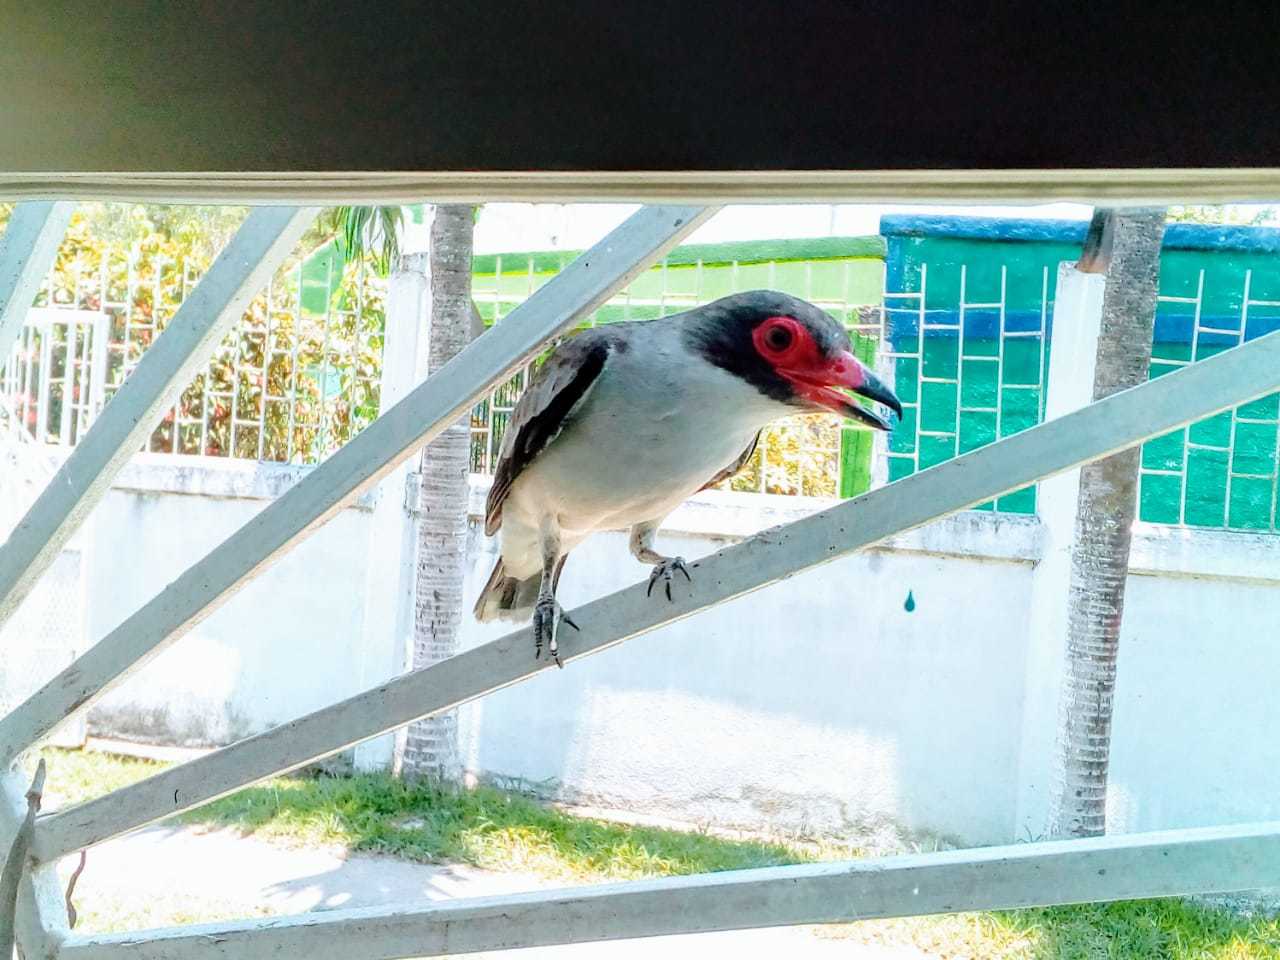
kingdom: Animalia
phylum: Chordata
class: Aves
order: Passeriformes
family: Cotingidae
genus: Tityra
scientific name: Tityra semifasciata
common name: Masked tityra
